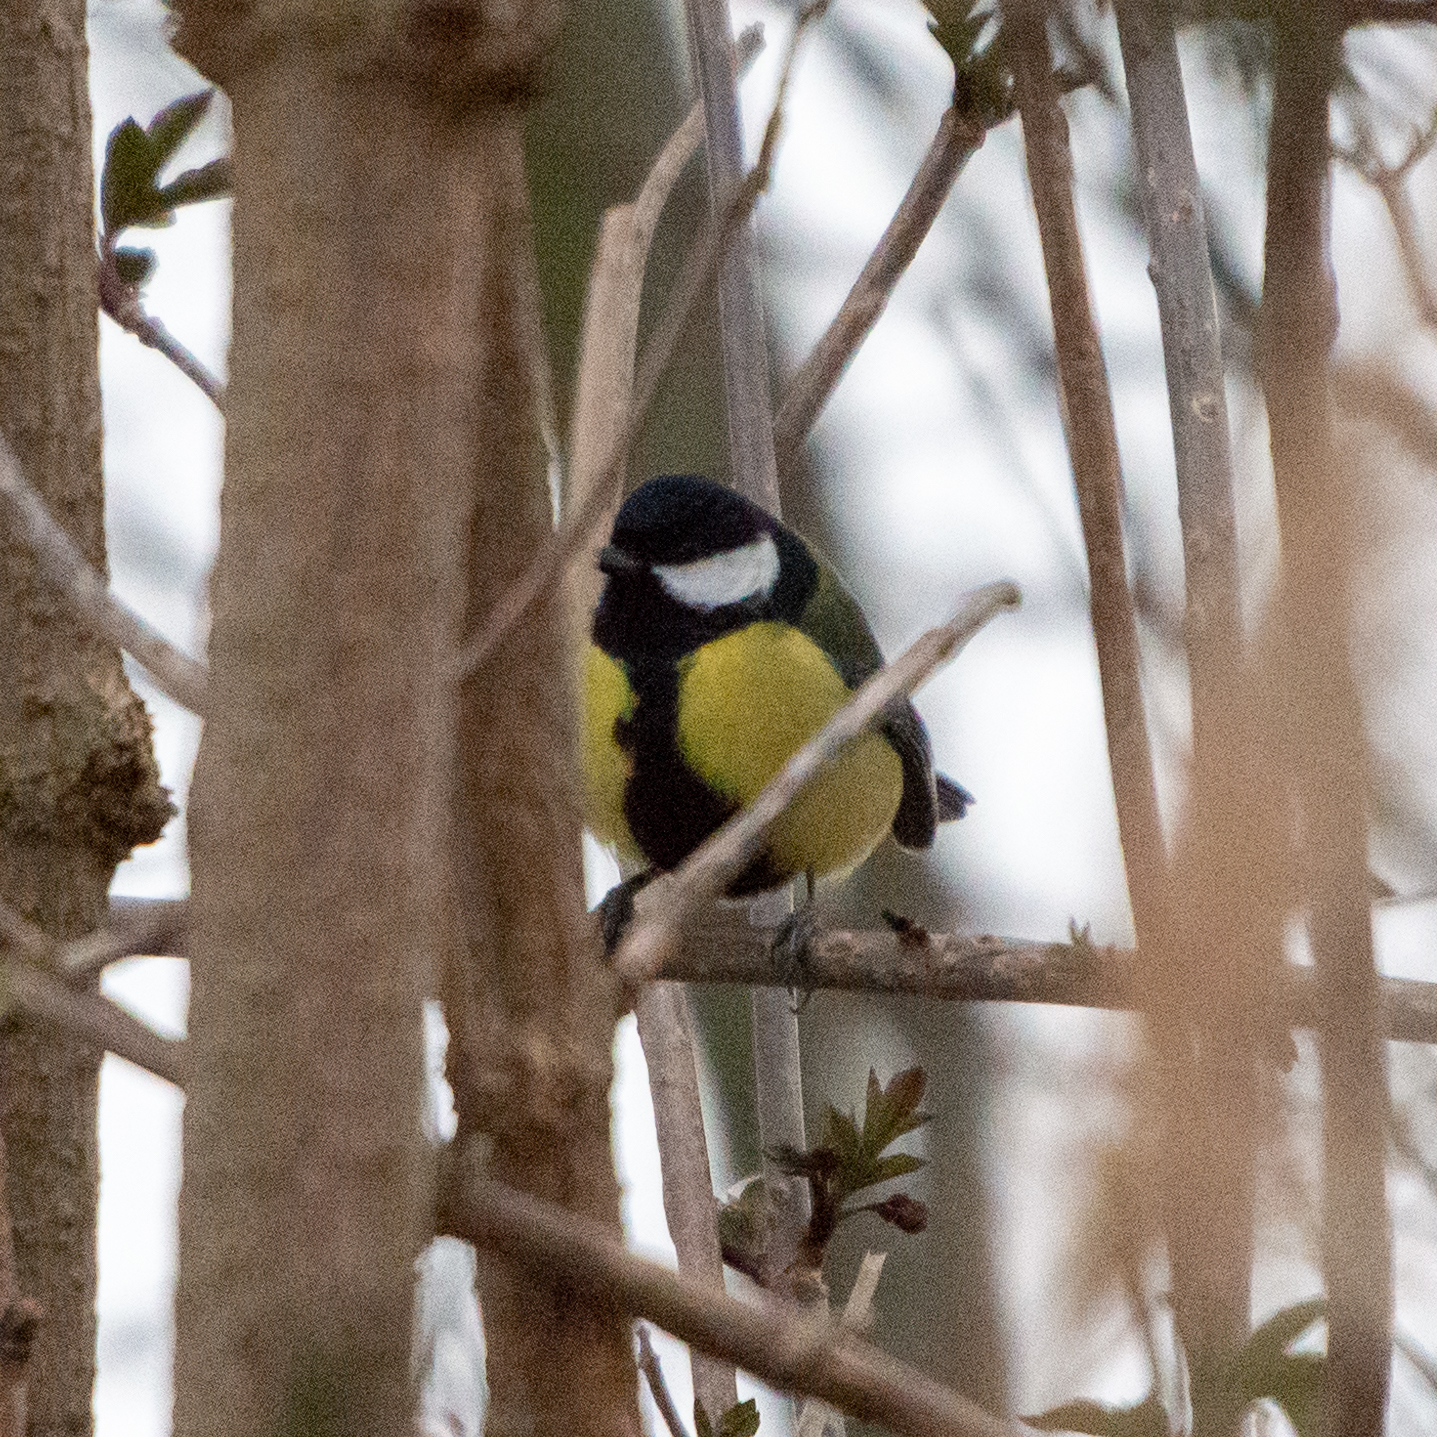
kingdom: Animalia
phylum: Chordata
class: Aves
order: Passeriformes
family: Paridae
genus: Parus
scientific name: Parus major
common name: Great tit
